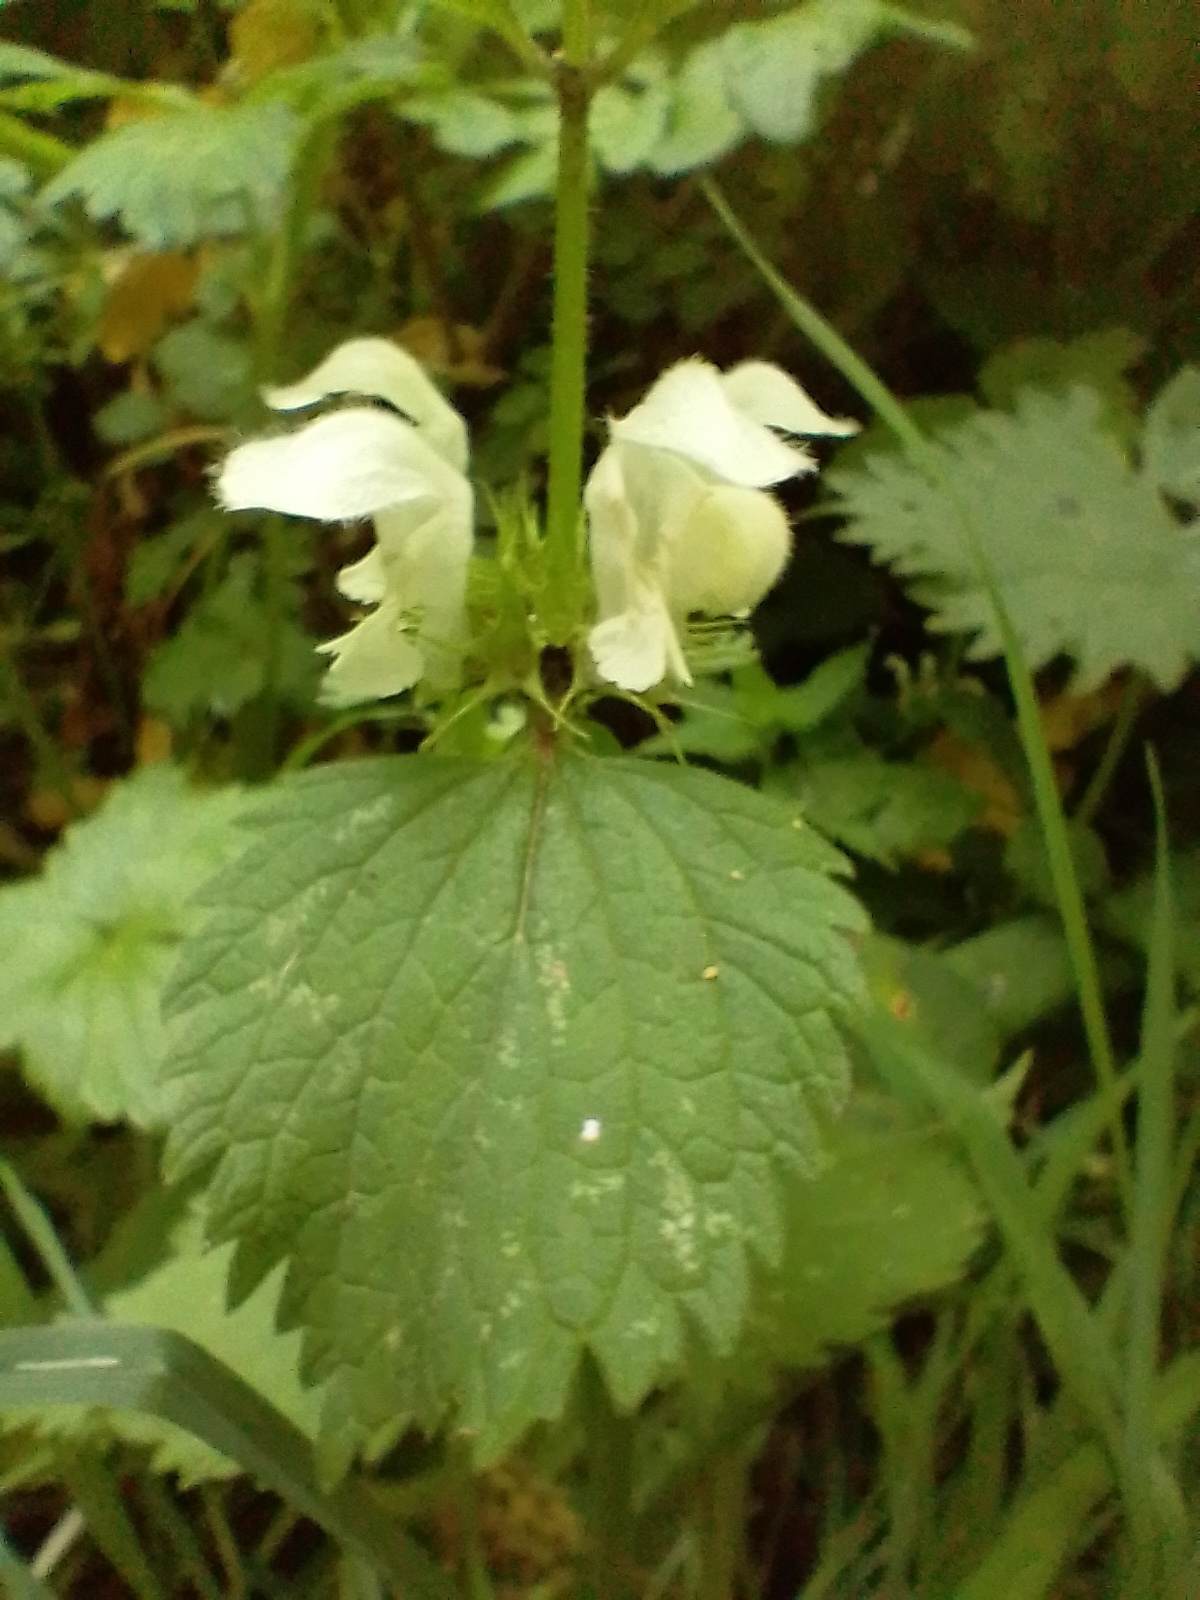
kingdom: Plantae
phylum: Tracheophyta
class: Magnoliopsida
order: Lamiales
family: Lamiaceae
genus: Lamium
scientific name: Lamium album
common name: White dead-nettle
